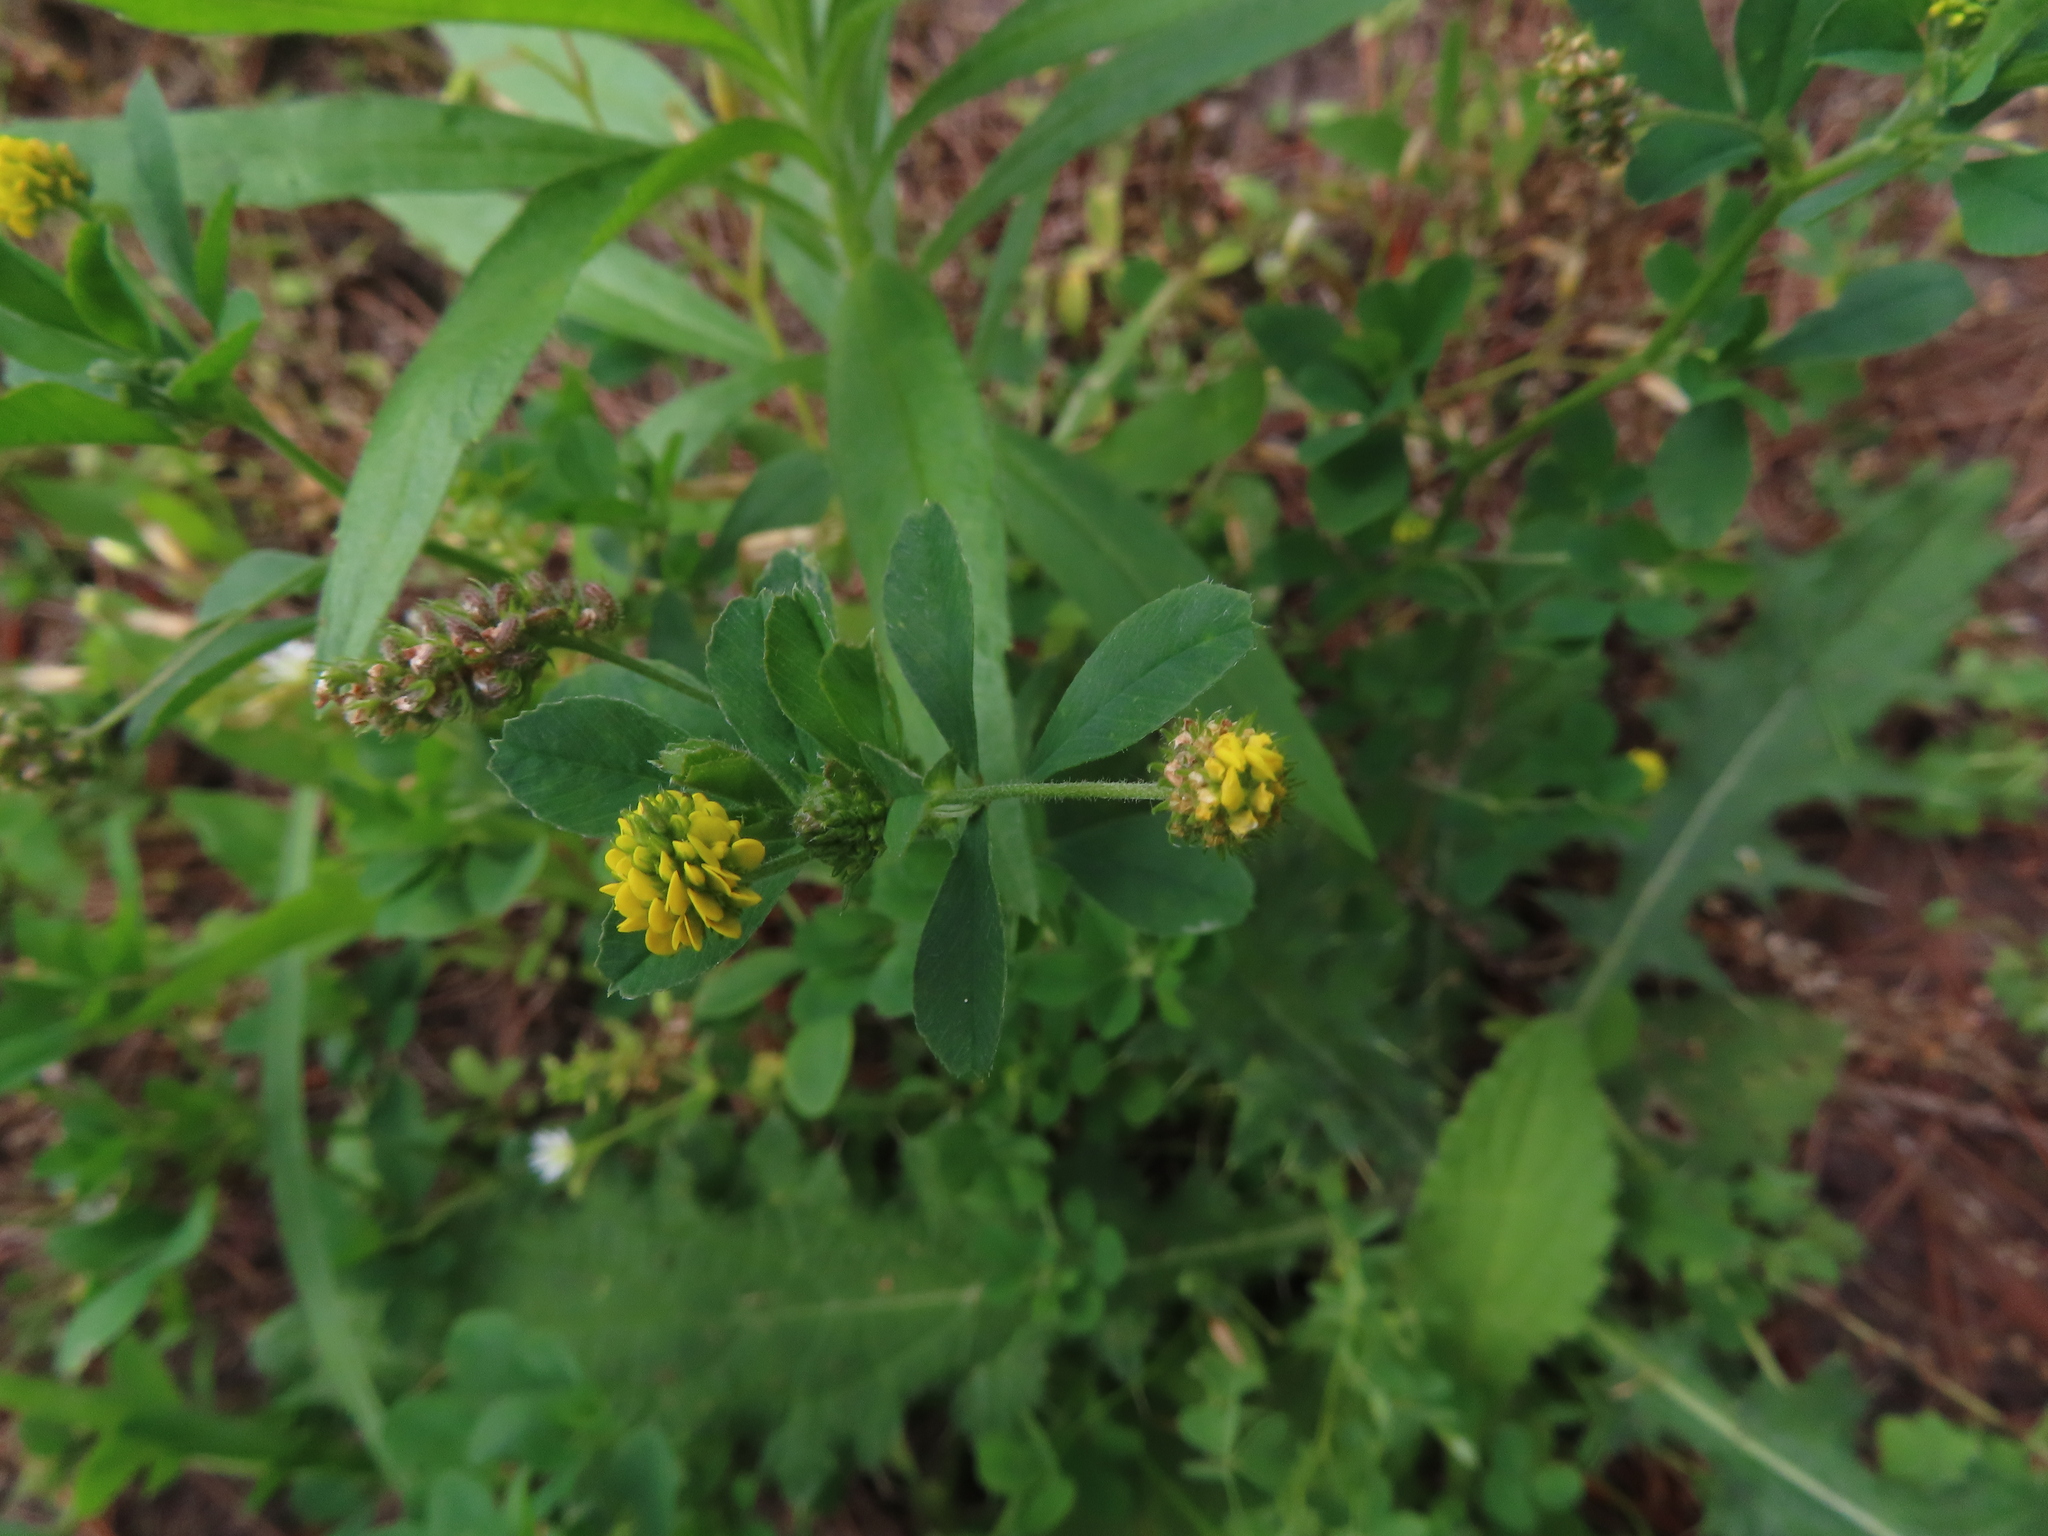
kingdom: Plantae
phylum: Tracheophyta
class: Magnoliopsida
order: Fabales
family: Fabaceae
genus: Medicago
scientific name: Medicago lupulina
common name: Black medick
